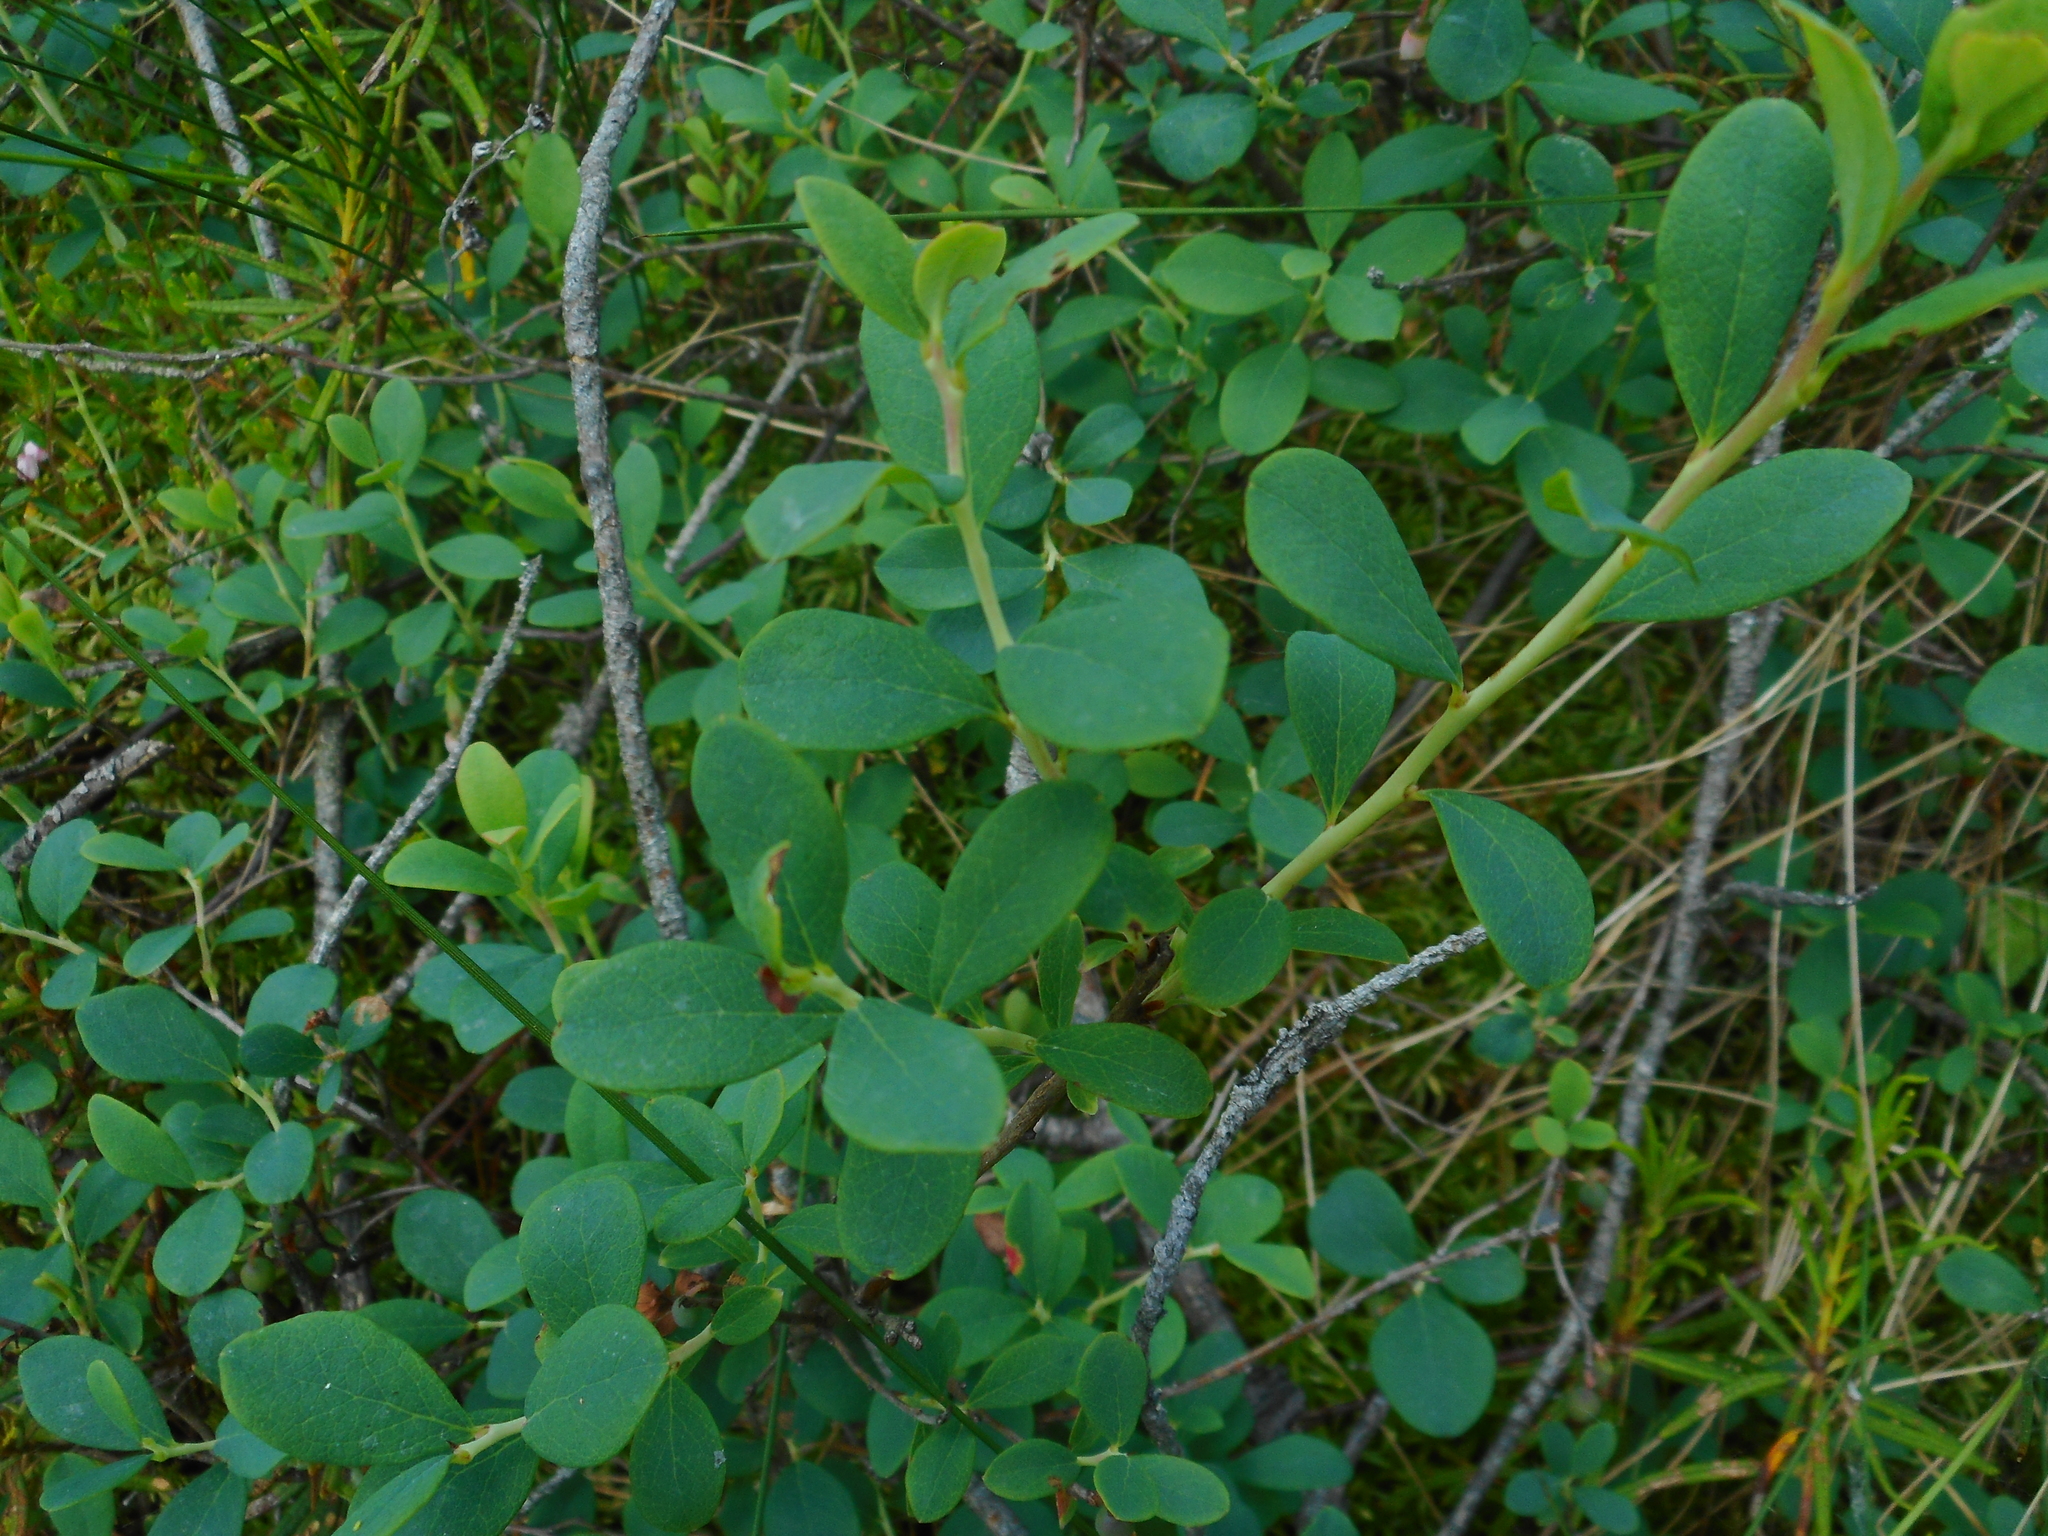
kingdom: Plantae
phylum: Tracheophyta
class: Magnoliopsida
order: Ericales
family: Ericaceae
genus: Vaccinium
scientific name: Vaccinium uliginosum
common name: Bog bilberry
